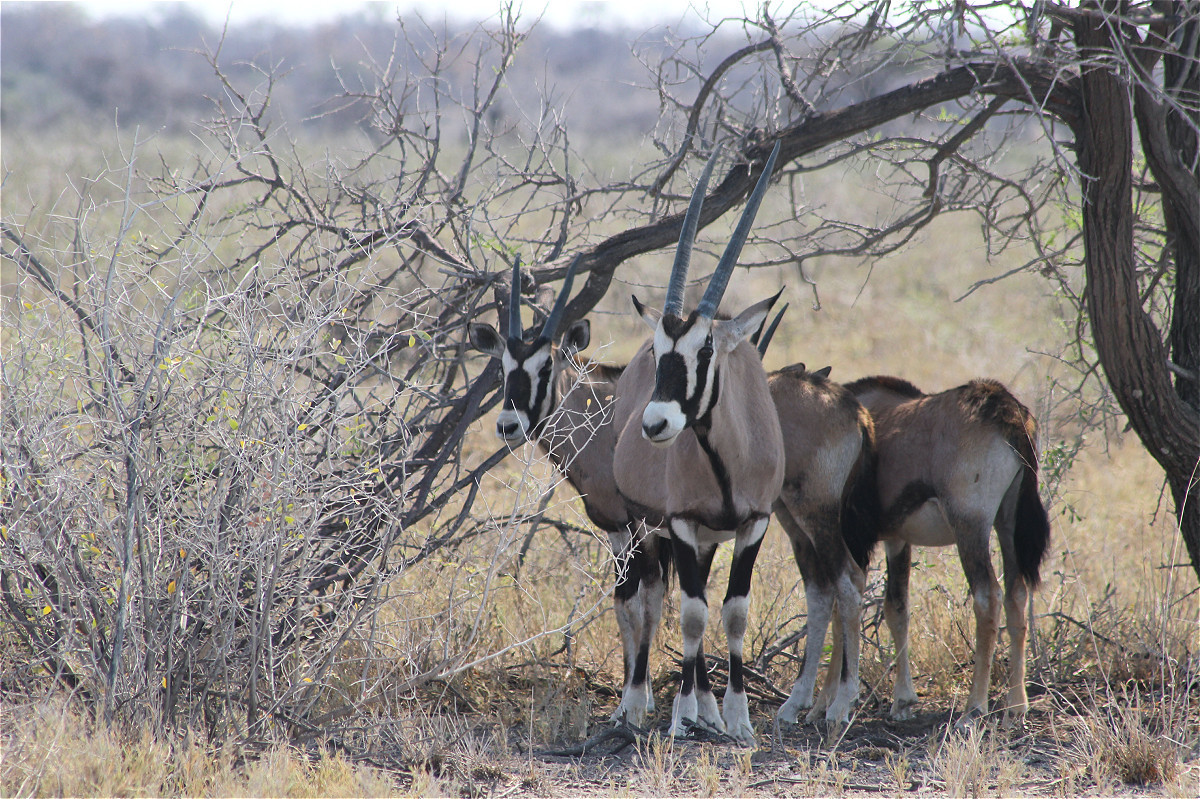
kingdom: Animalia
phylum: Chordata
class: Mammalia
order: Artiodactyla
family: Bovidae
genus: Oryx
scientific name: Oryx gazella
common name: Gemsbok
